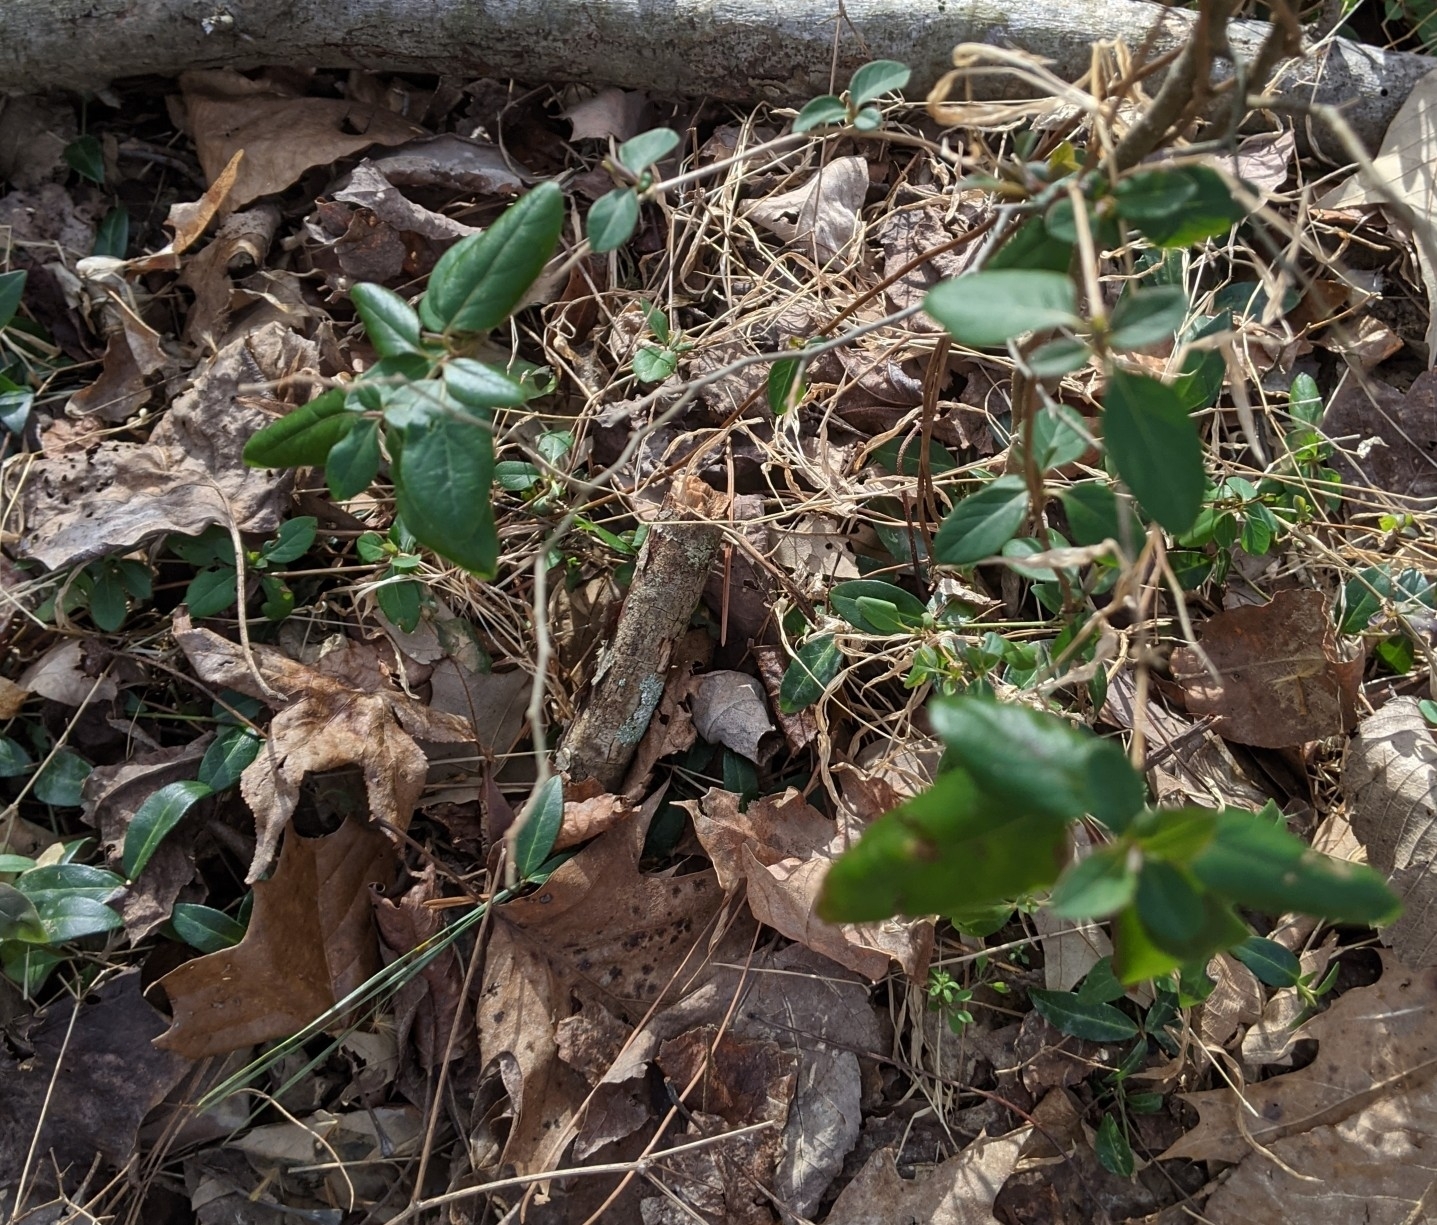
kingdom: Plantae
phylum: Tracheophyta
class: Magnoliopsida
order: Dipsacales
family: Caprifoliaceae
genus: Lonicera
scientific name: Lonicera japonica
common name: Japanese honeysuckle
